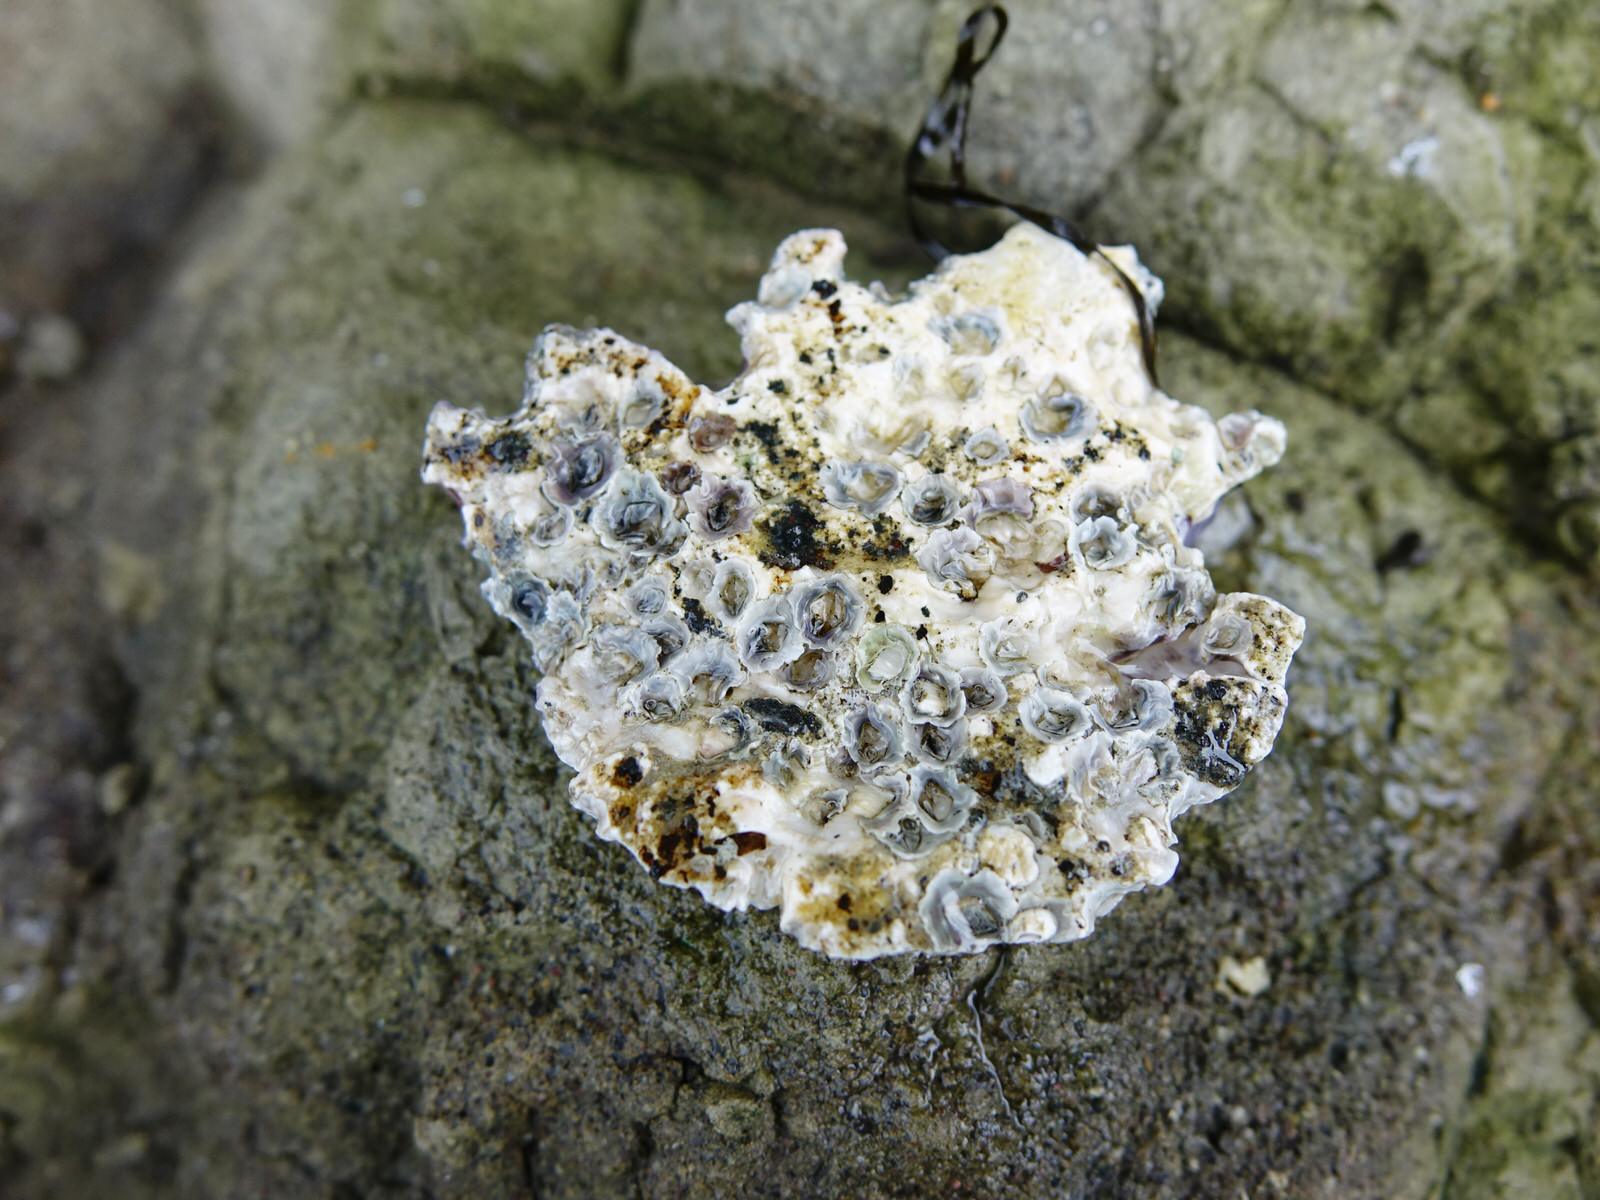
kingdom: Animalia
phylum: Mollusca
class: Bivalvia
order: Ostreida
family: Ostreidae
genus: Magallana
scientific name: Magallana gigas
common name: Pacific oyster
